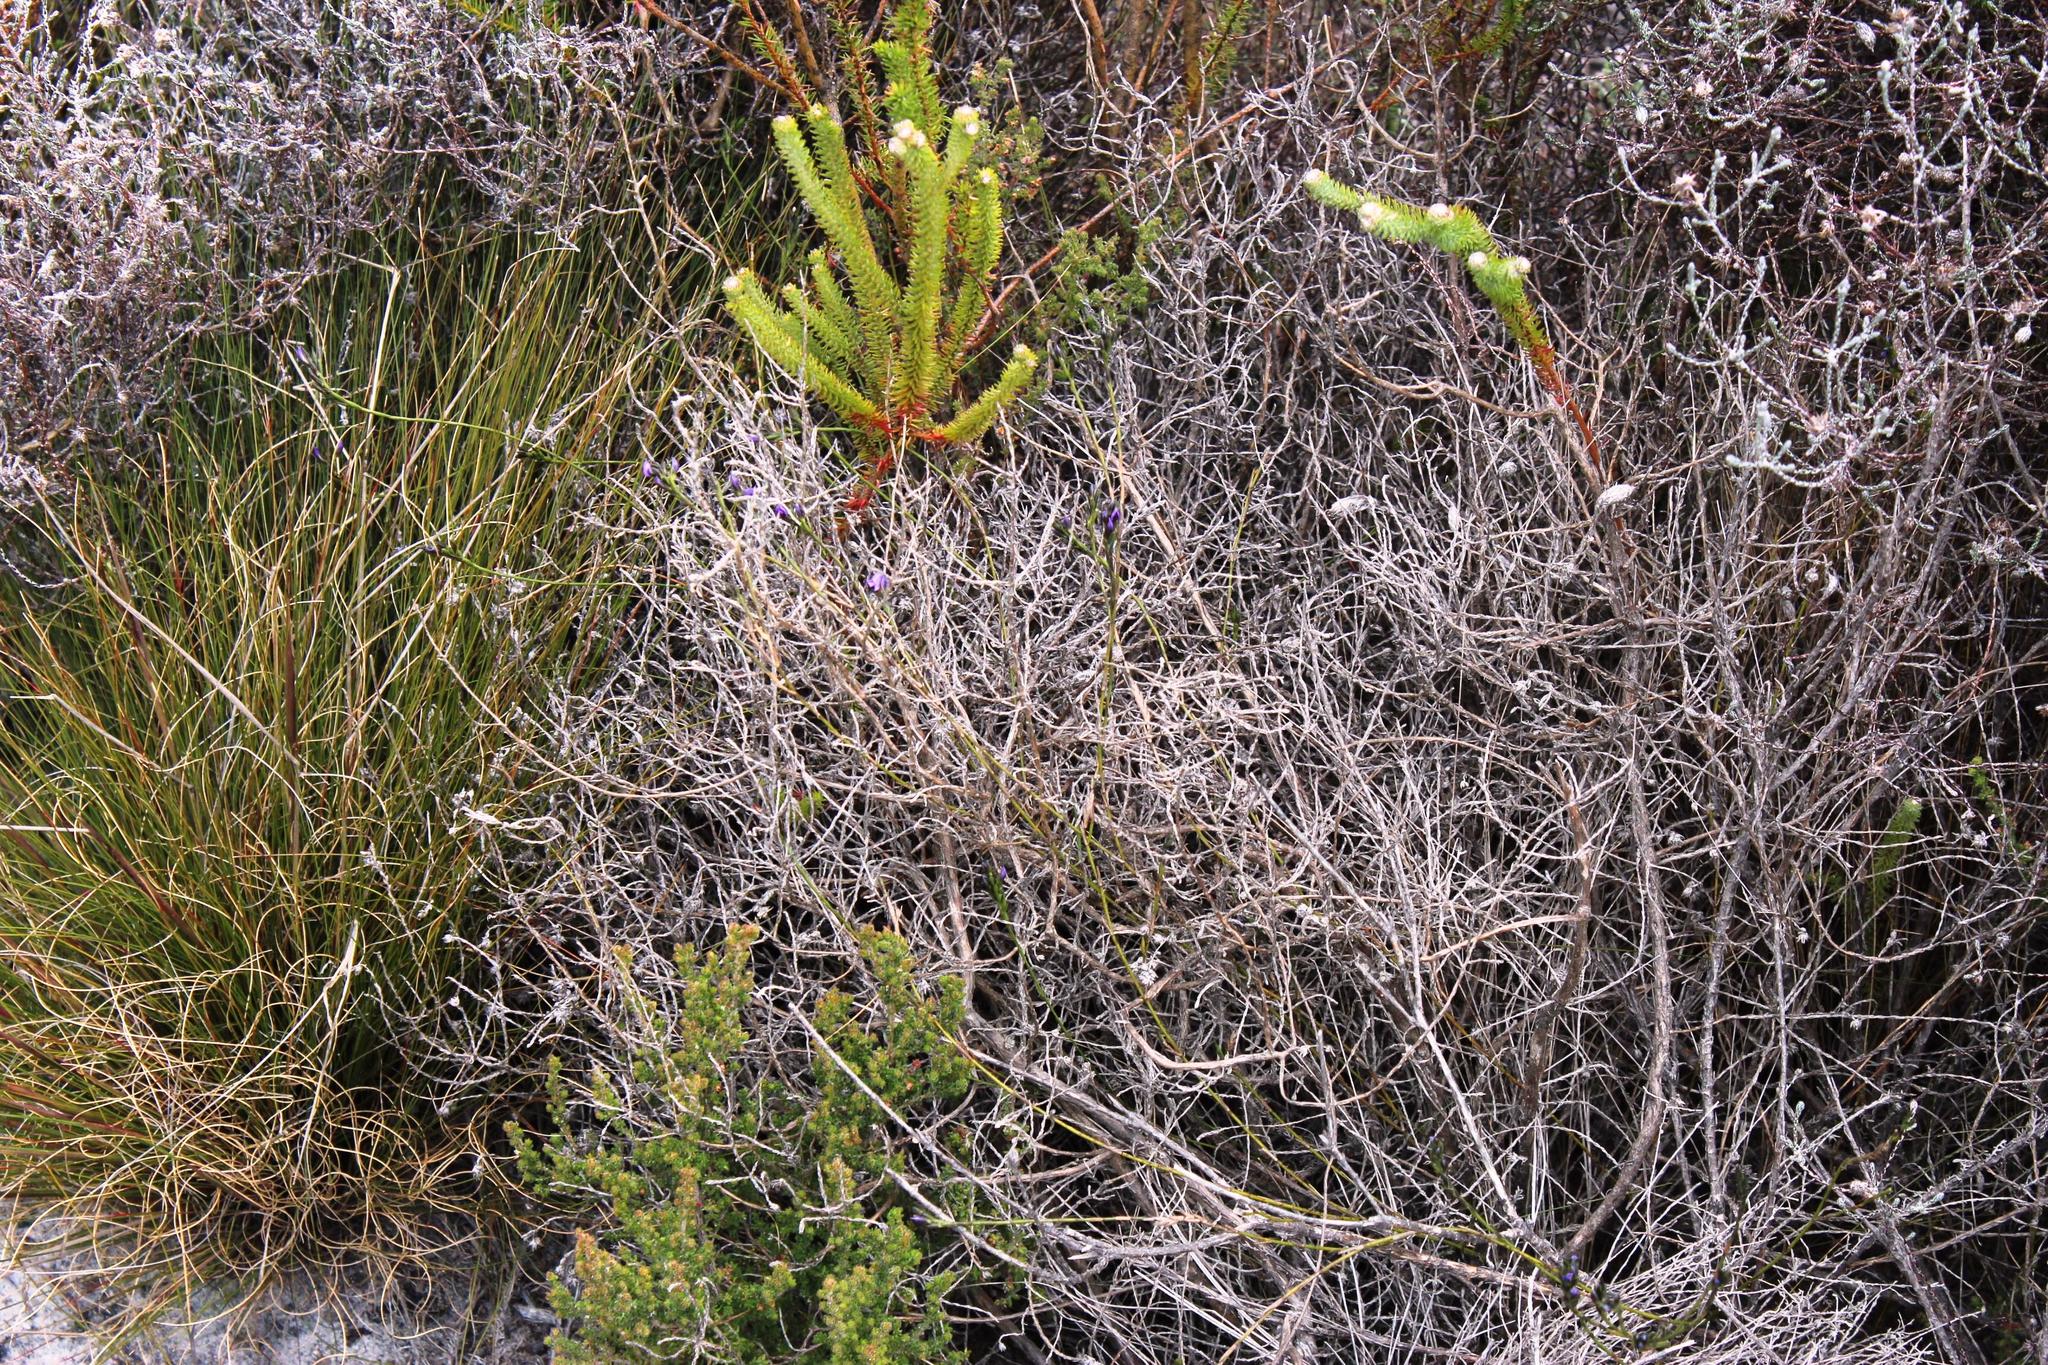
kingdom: Plantae
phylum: Tracheophyta
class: Magnoliopsida
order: Fabales
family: Fabaceae
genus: Psoralea
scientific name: Psoralea restioides
